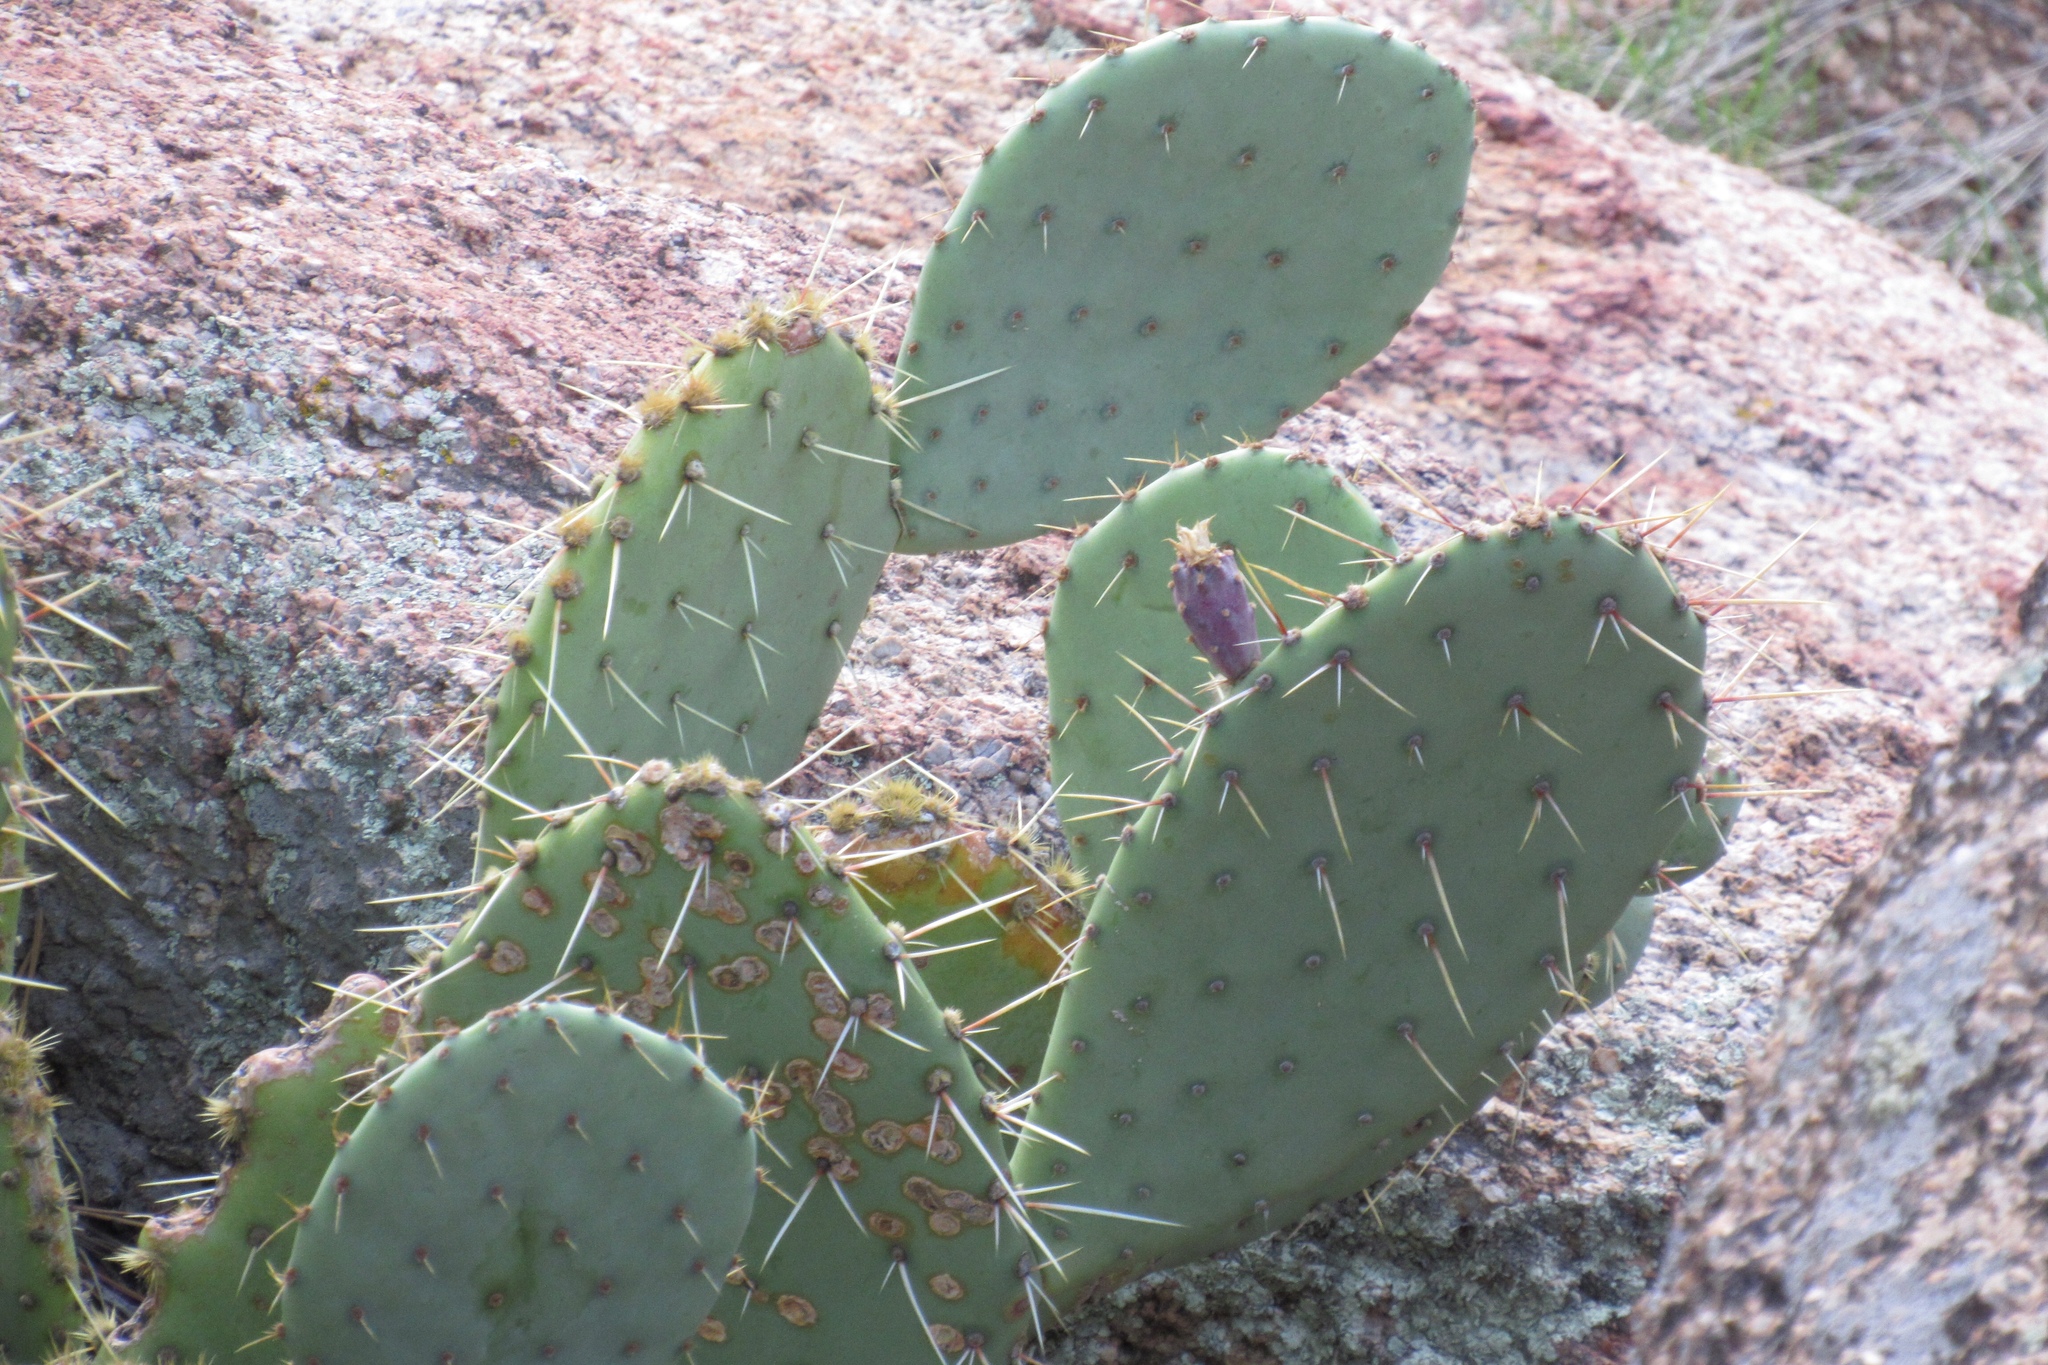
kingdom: Plantae
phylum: Tracheophyta
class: Magnoliopsida
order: Caryophyllales
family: Cactaceae
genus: Opuntia
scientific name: Opuntia engelmannii
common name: Cactus-apple
